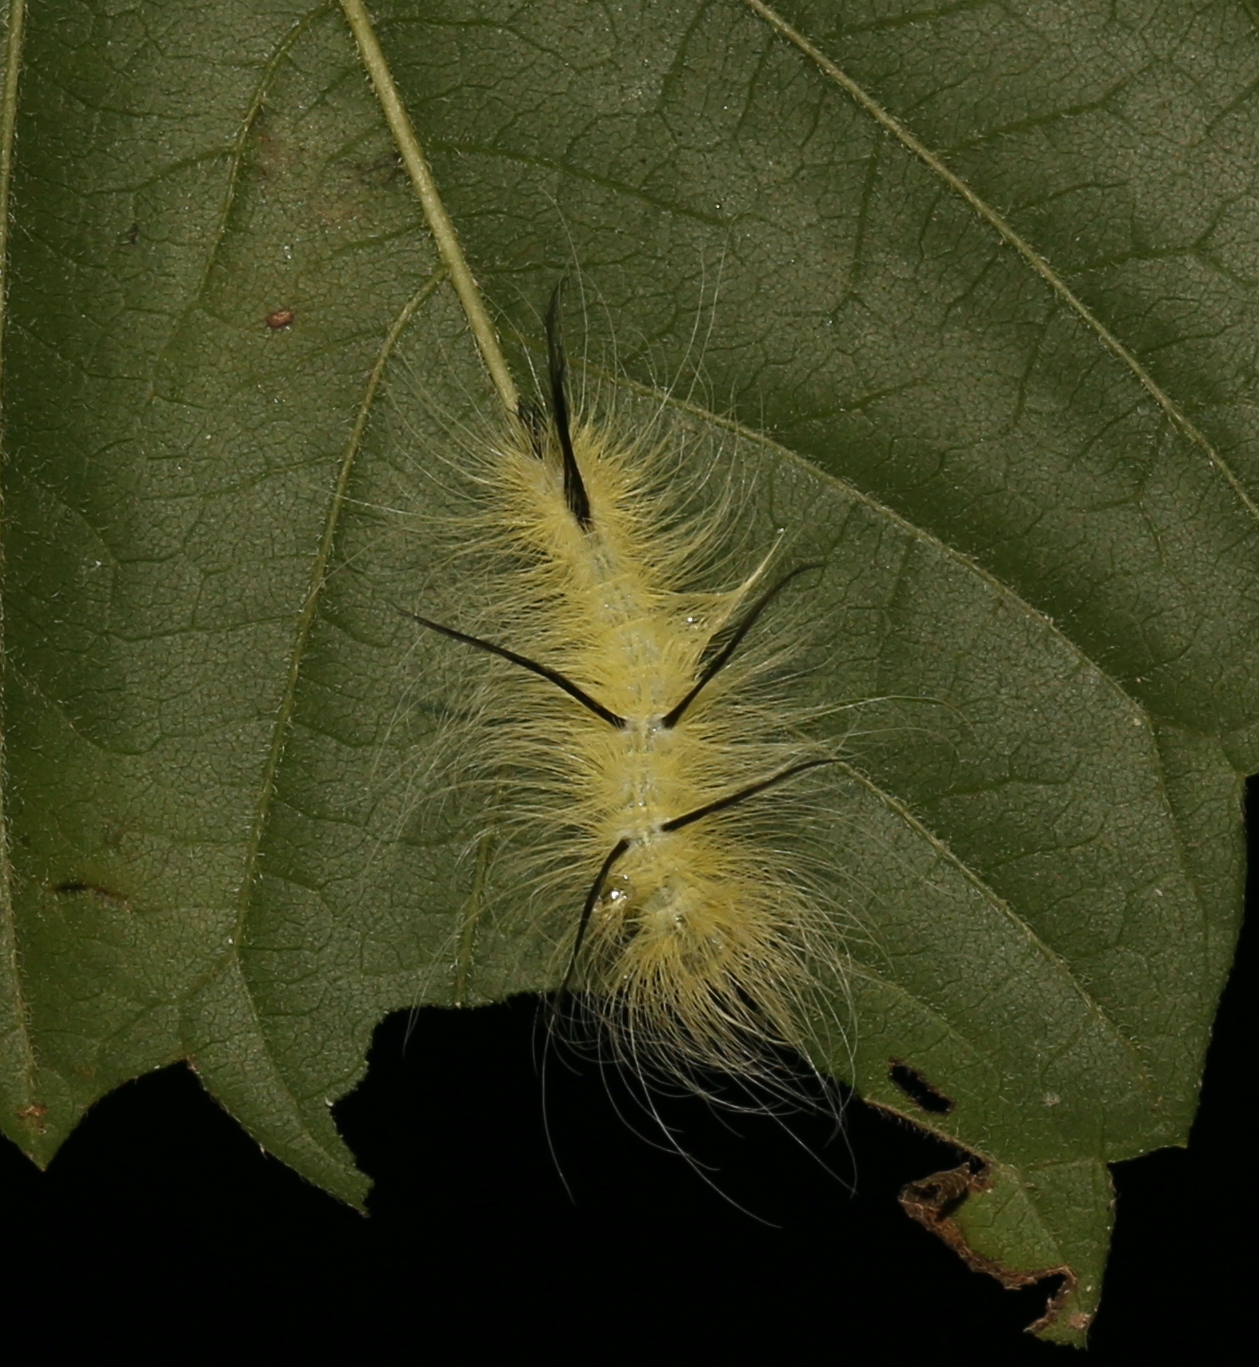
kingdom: Animalia
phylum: Arthropoda
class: Insecta
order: Lepidoptera
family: Noctuidae
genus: Acronicta
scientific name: Acronicta americana
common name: American dagger
